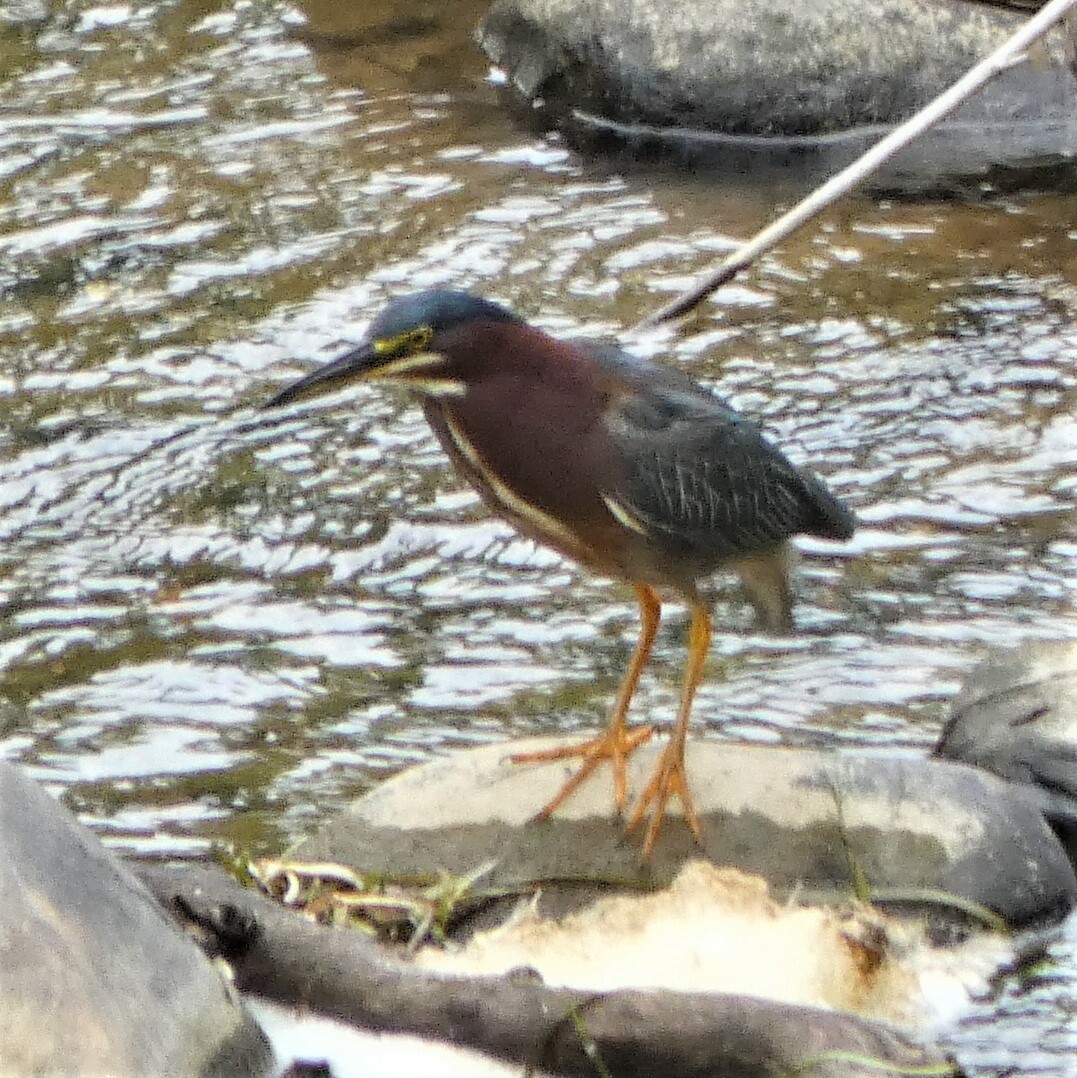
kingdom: Animalia
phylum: Chordata
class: Aves
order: Pelecaniformes
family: Ardeidae
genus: Butorides
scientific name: Butorides virescens
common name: Green heron
